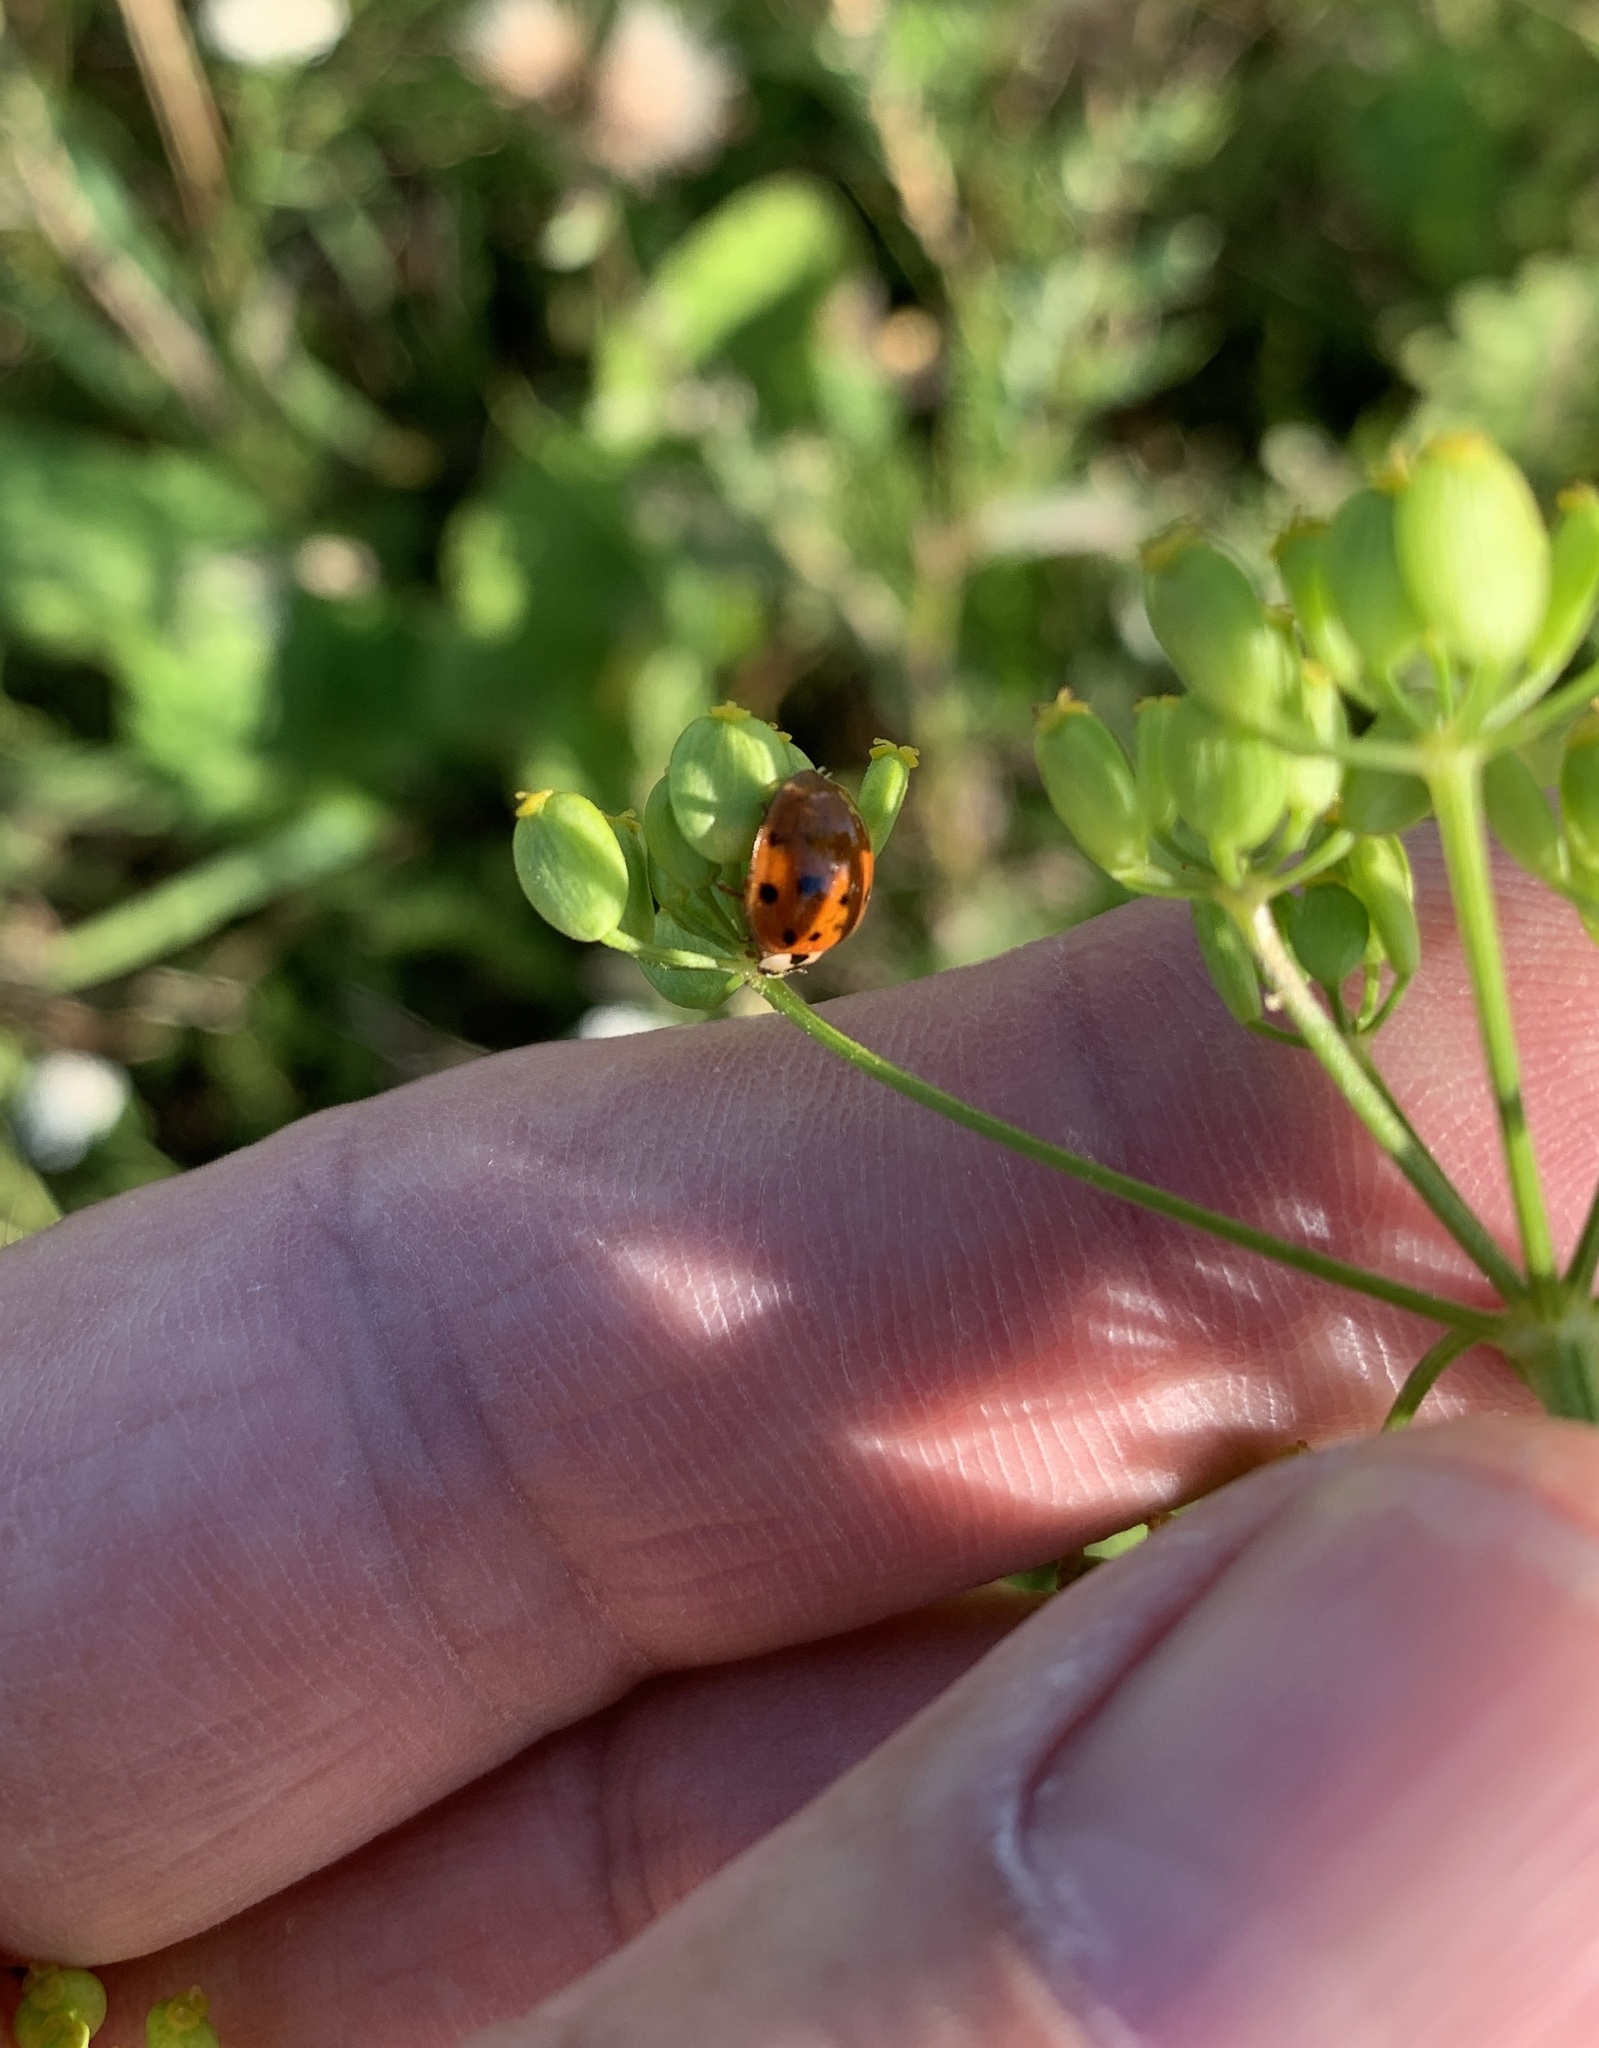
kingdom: Animalia
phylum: Arthropoda
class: Insecta
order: Coleoptera
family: Coccinellidae
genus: Harmonia
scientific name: Harmonia axyridis
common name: Harlequin ladybird
